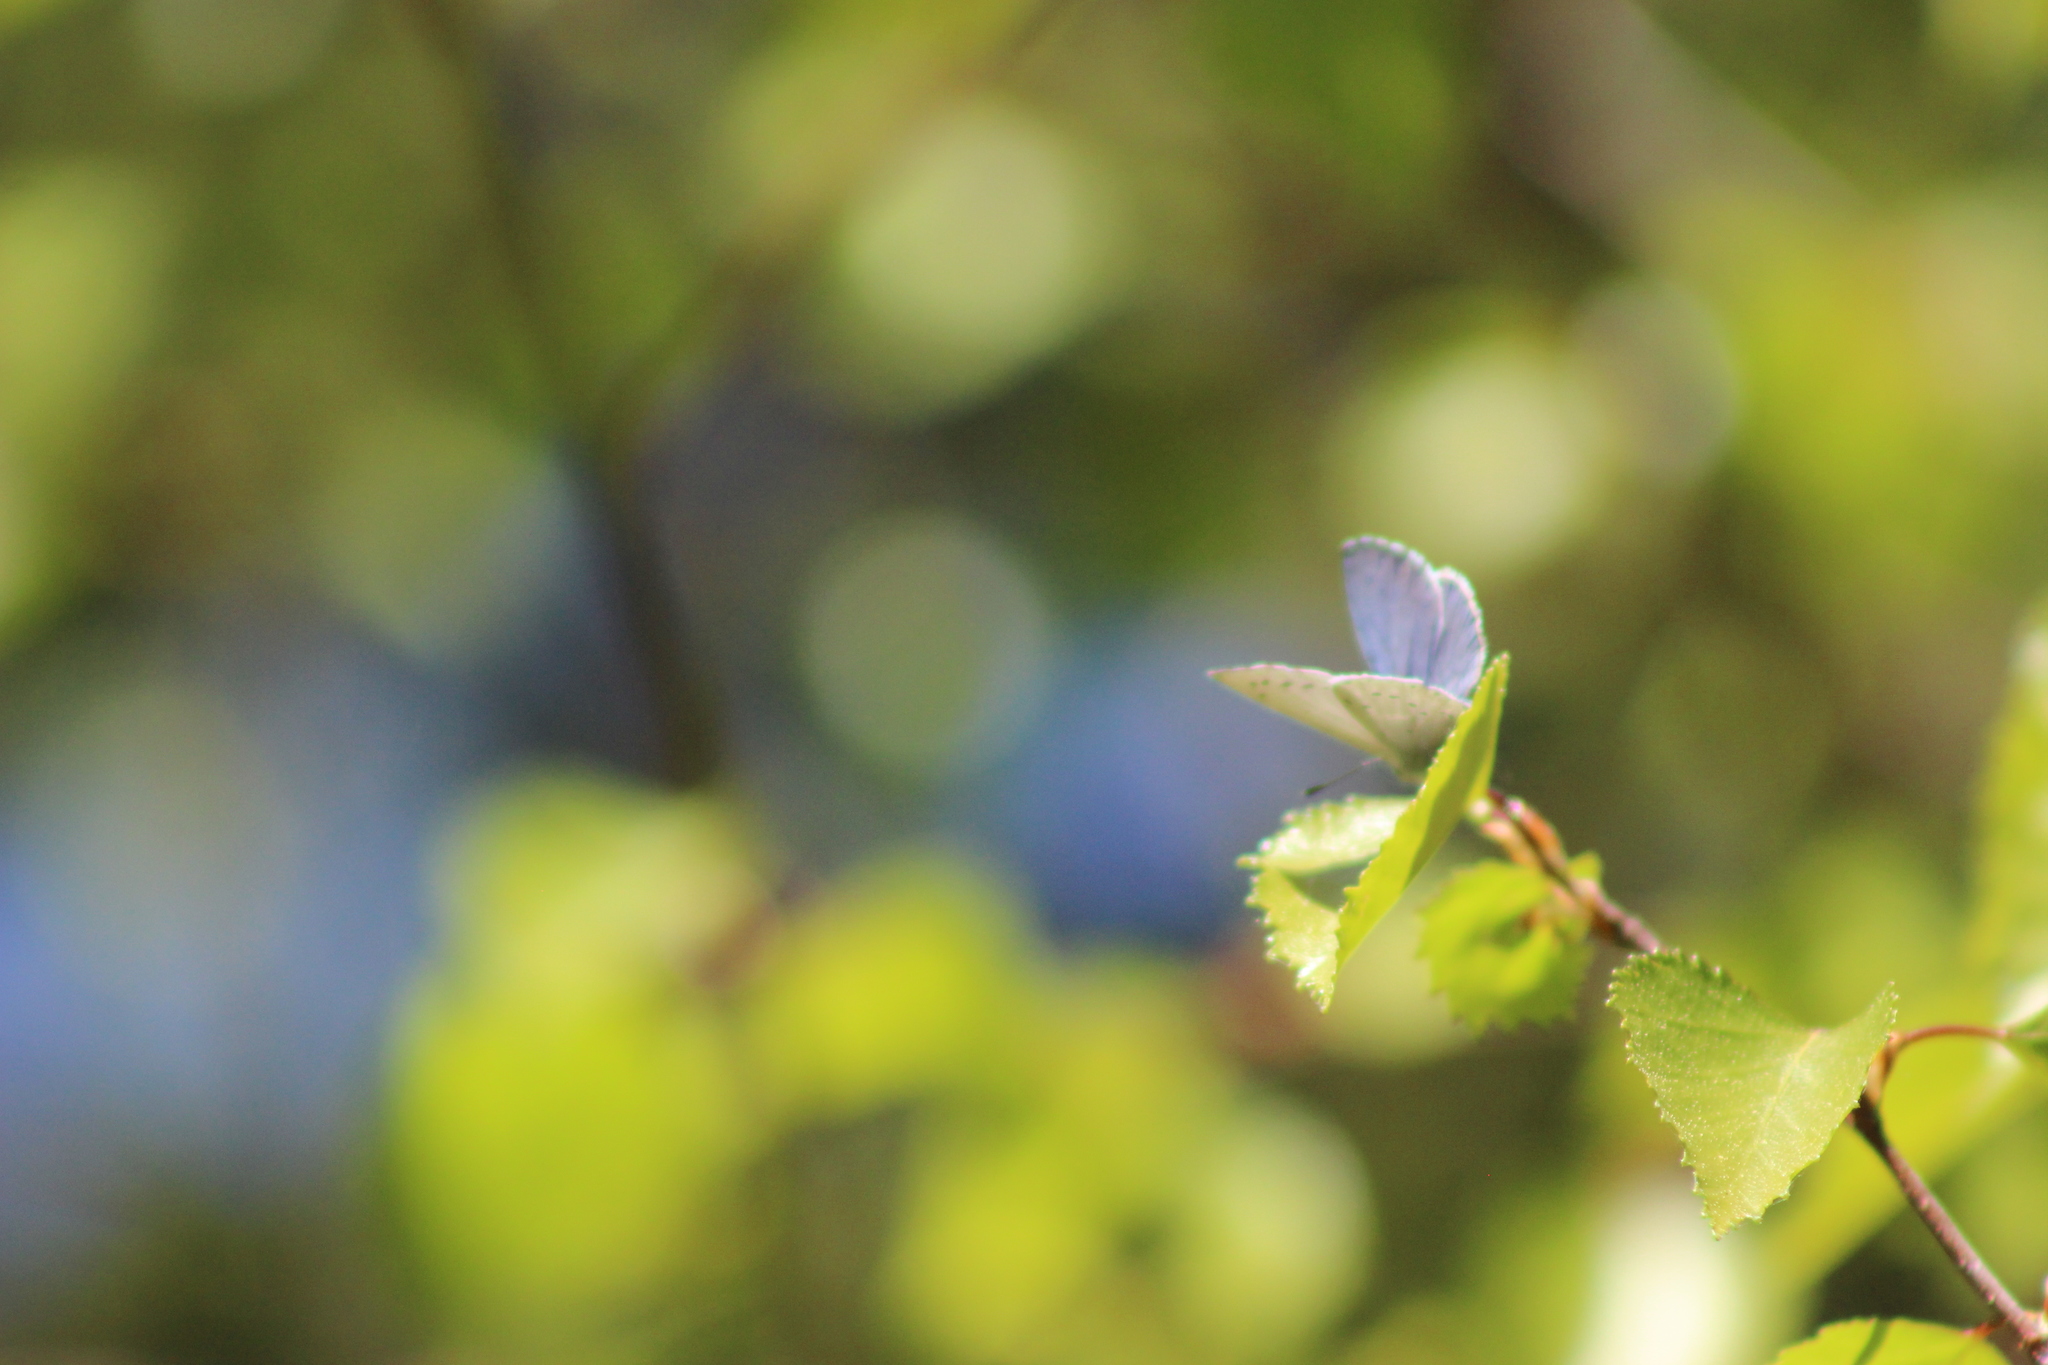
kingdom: Animalia
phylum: Arthropoda
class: Insecta
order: Lepidoptera
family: Lycaenidae
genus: Celastrina
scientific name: Celastrina argiolus
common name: Holly blue
